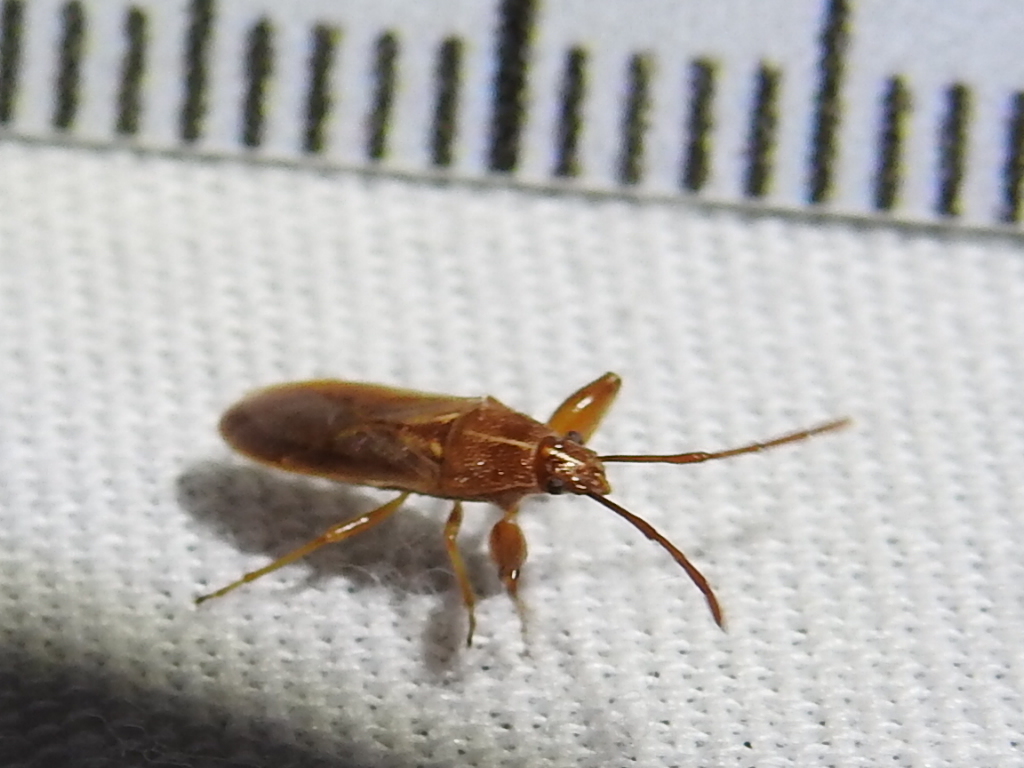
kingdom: Animalia
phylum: Arthropoda
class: Insecta
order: Hemiptera
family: Pachygronthidae
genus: Oedancala
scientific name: Oedancala crassimana
